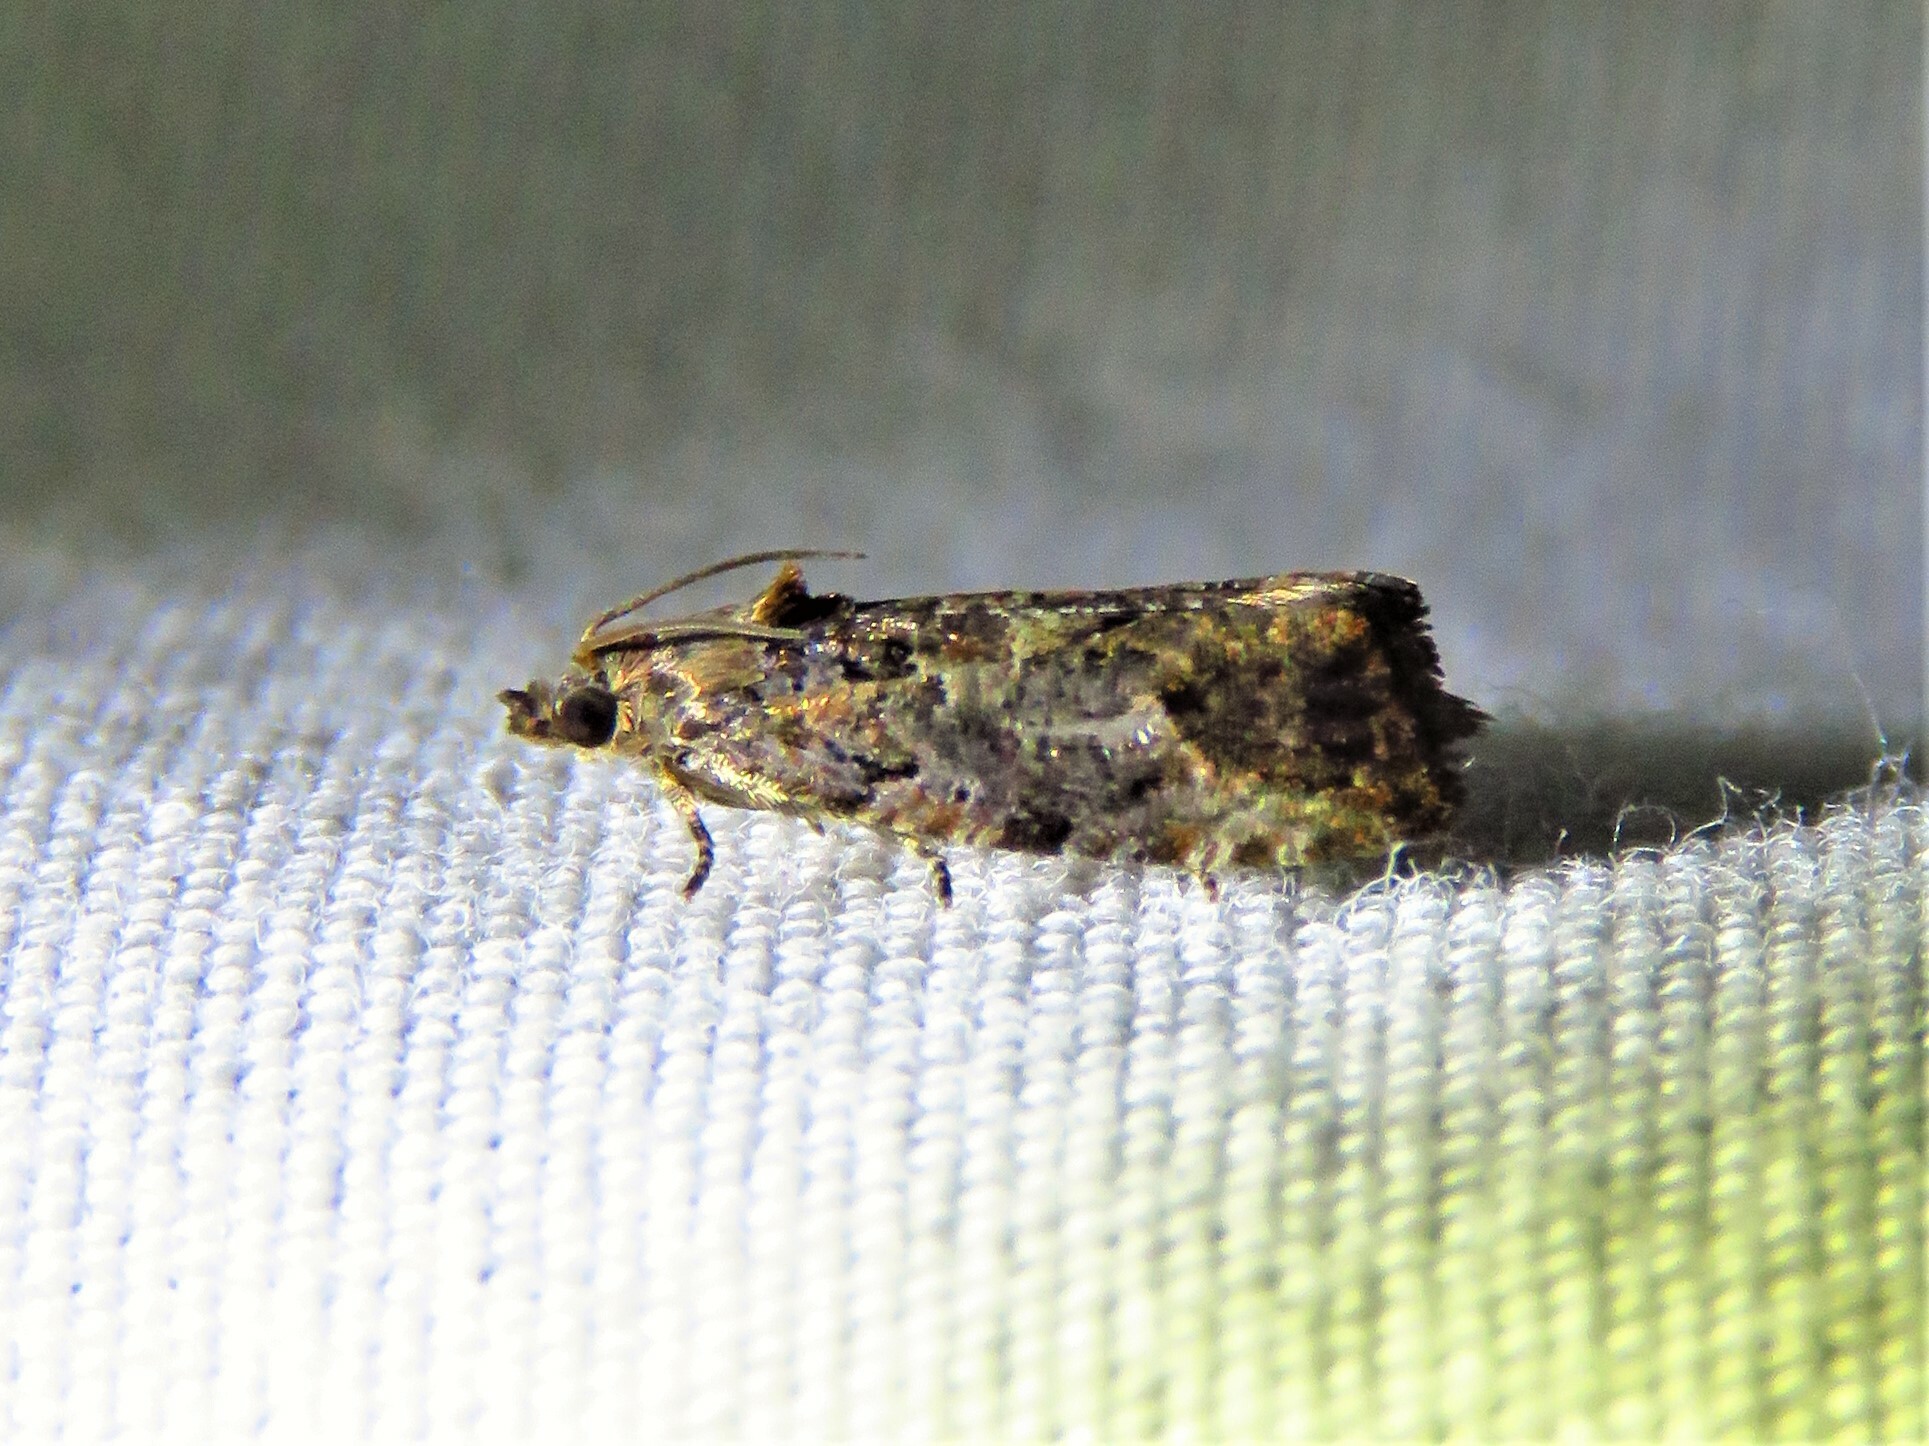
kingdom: Animalia
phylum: Arthropoda
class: Insecta
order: Lepidoptera
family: Tortricidae
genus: Endothenia
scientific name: Endothenia hebesana
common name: Verbena bud moth
